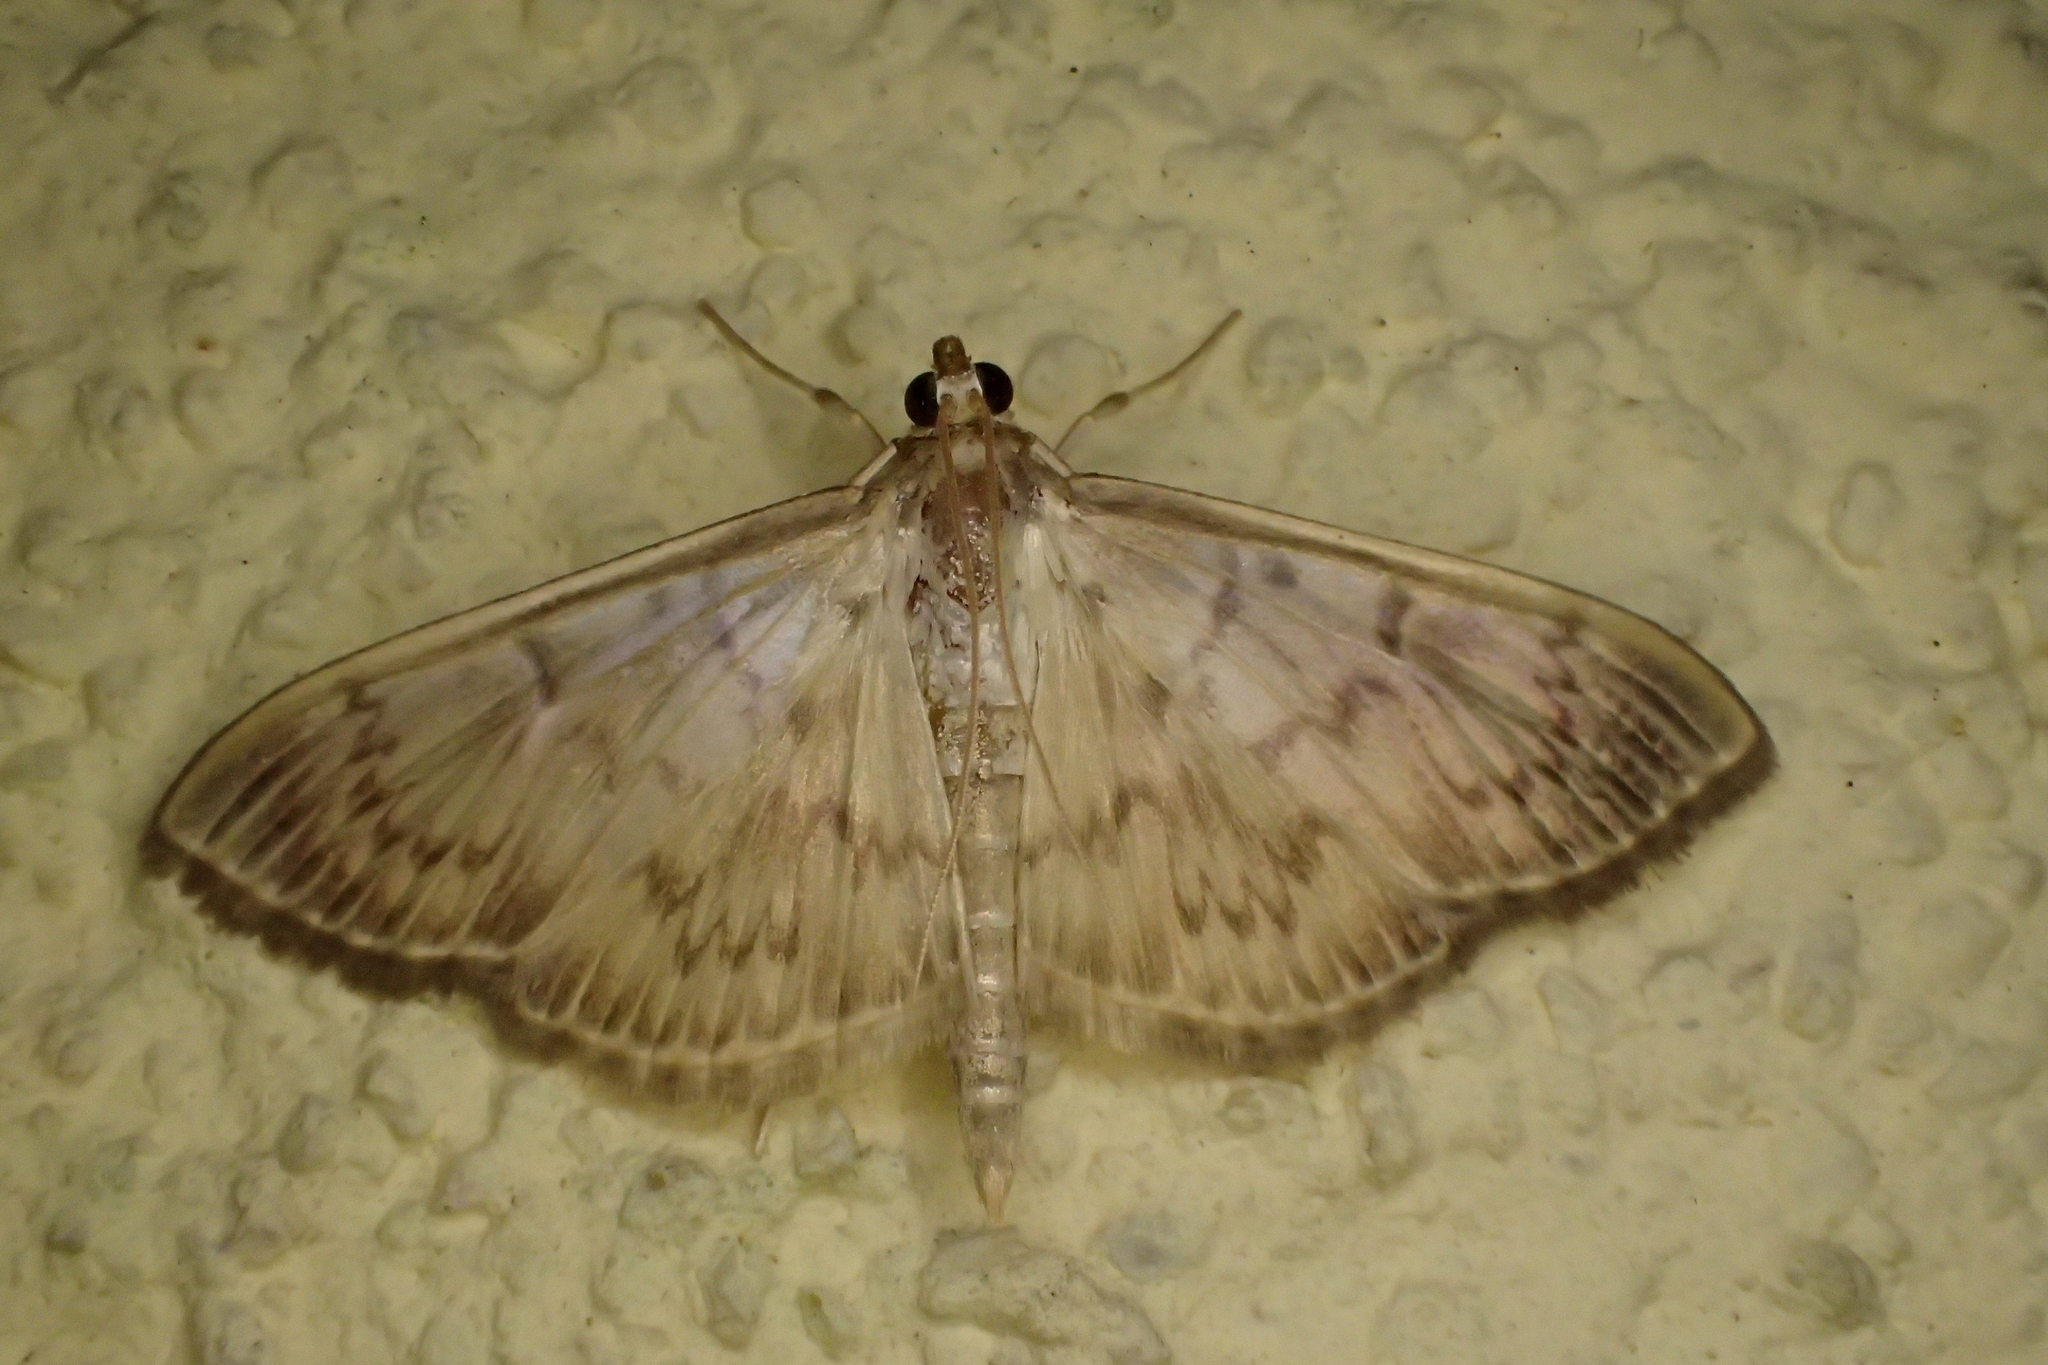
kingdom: Animalia
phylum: Arthropoda
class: Insecta
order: Lepidoptera
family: Crambidae
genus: Patania
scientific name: Patania ruralis
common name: Mother of pearl
